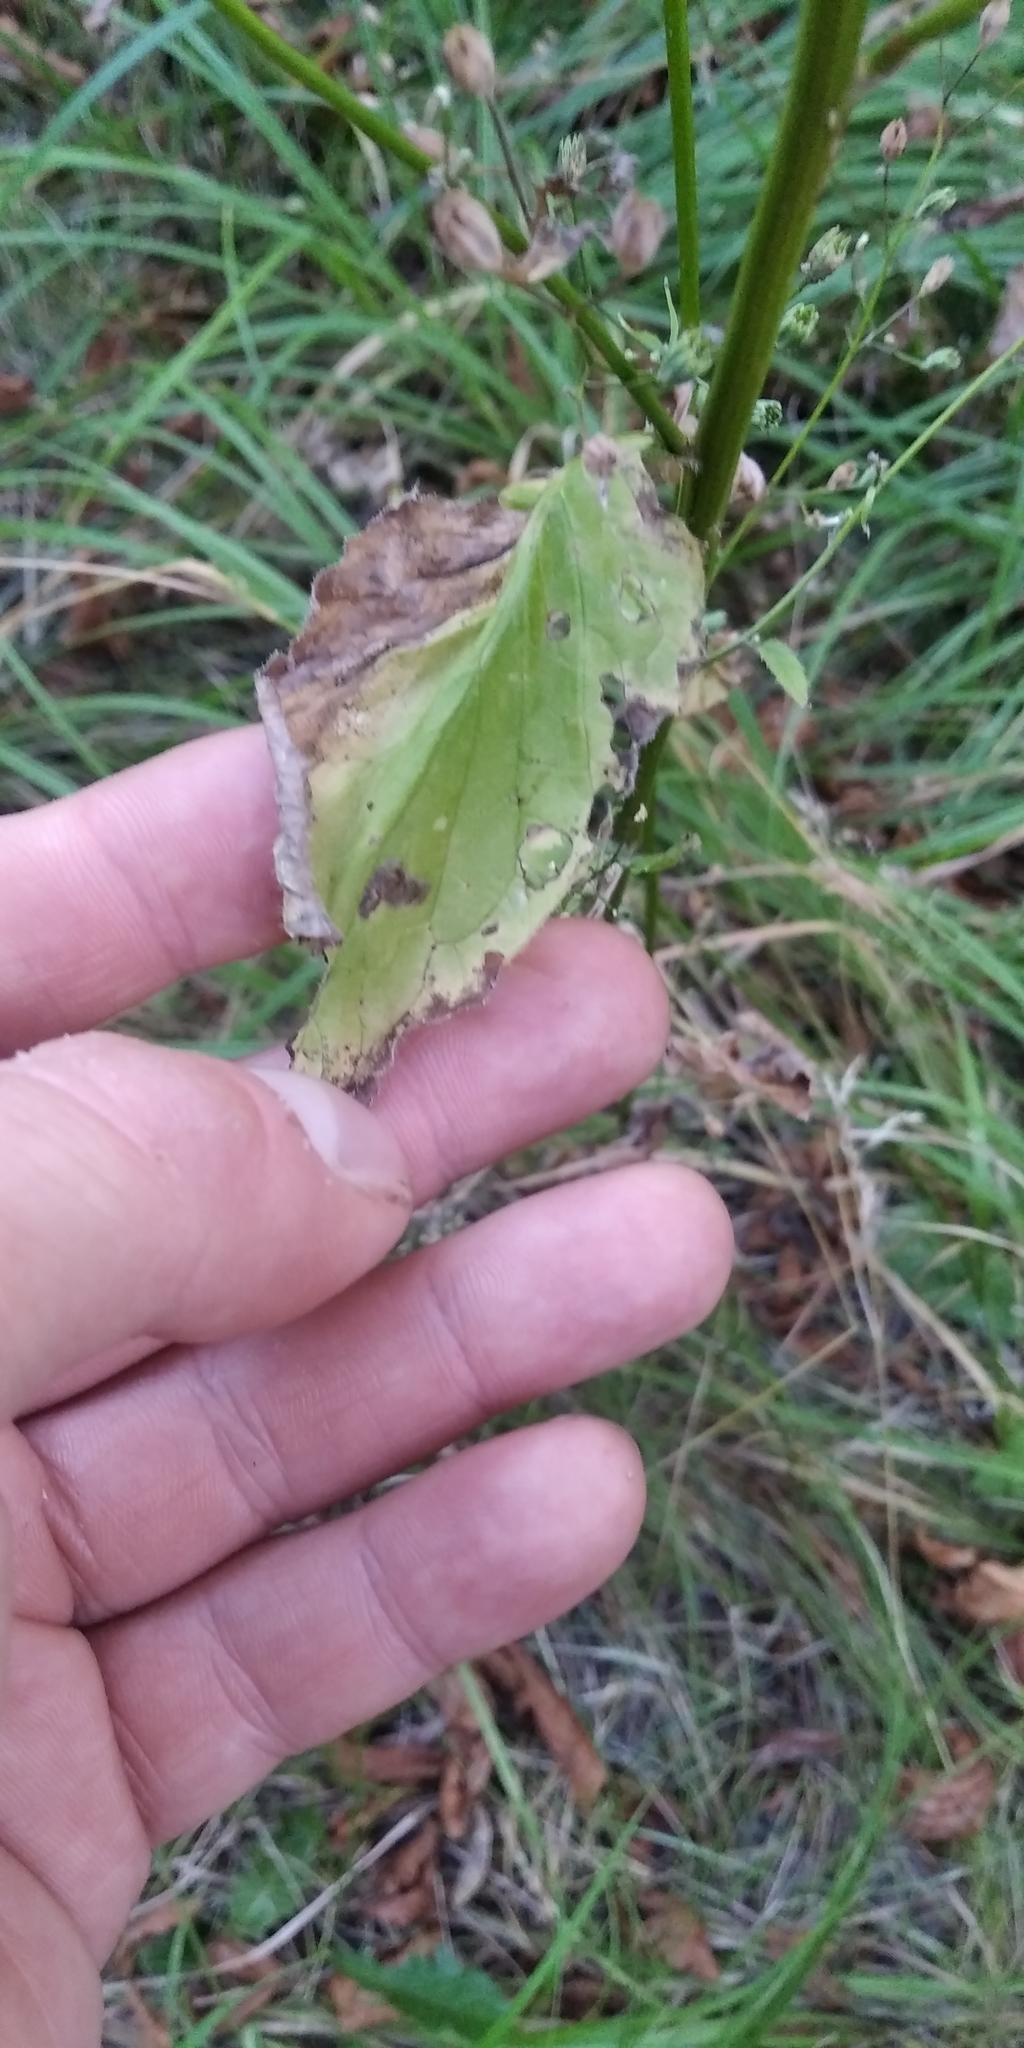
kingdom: Plantae
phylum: Tracheophyta
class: Magnoliopsida
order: Asterales
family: Asteraceae
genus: Lapsana
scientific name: Lapsana communis
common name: Nipplewort
